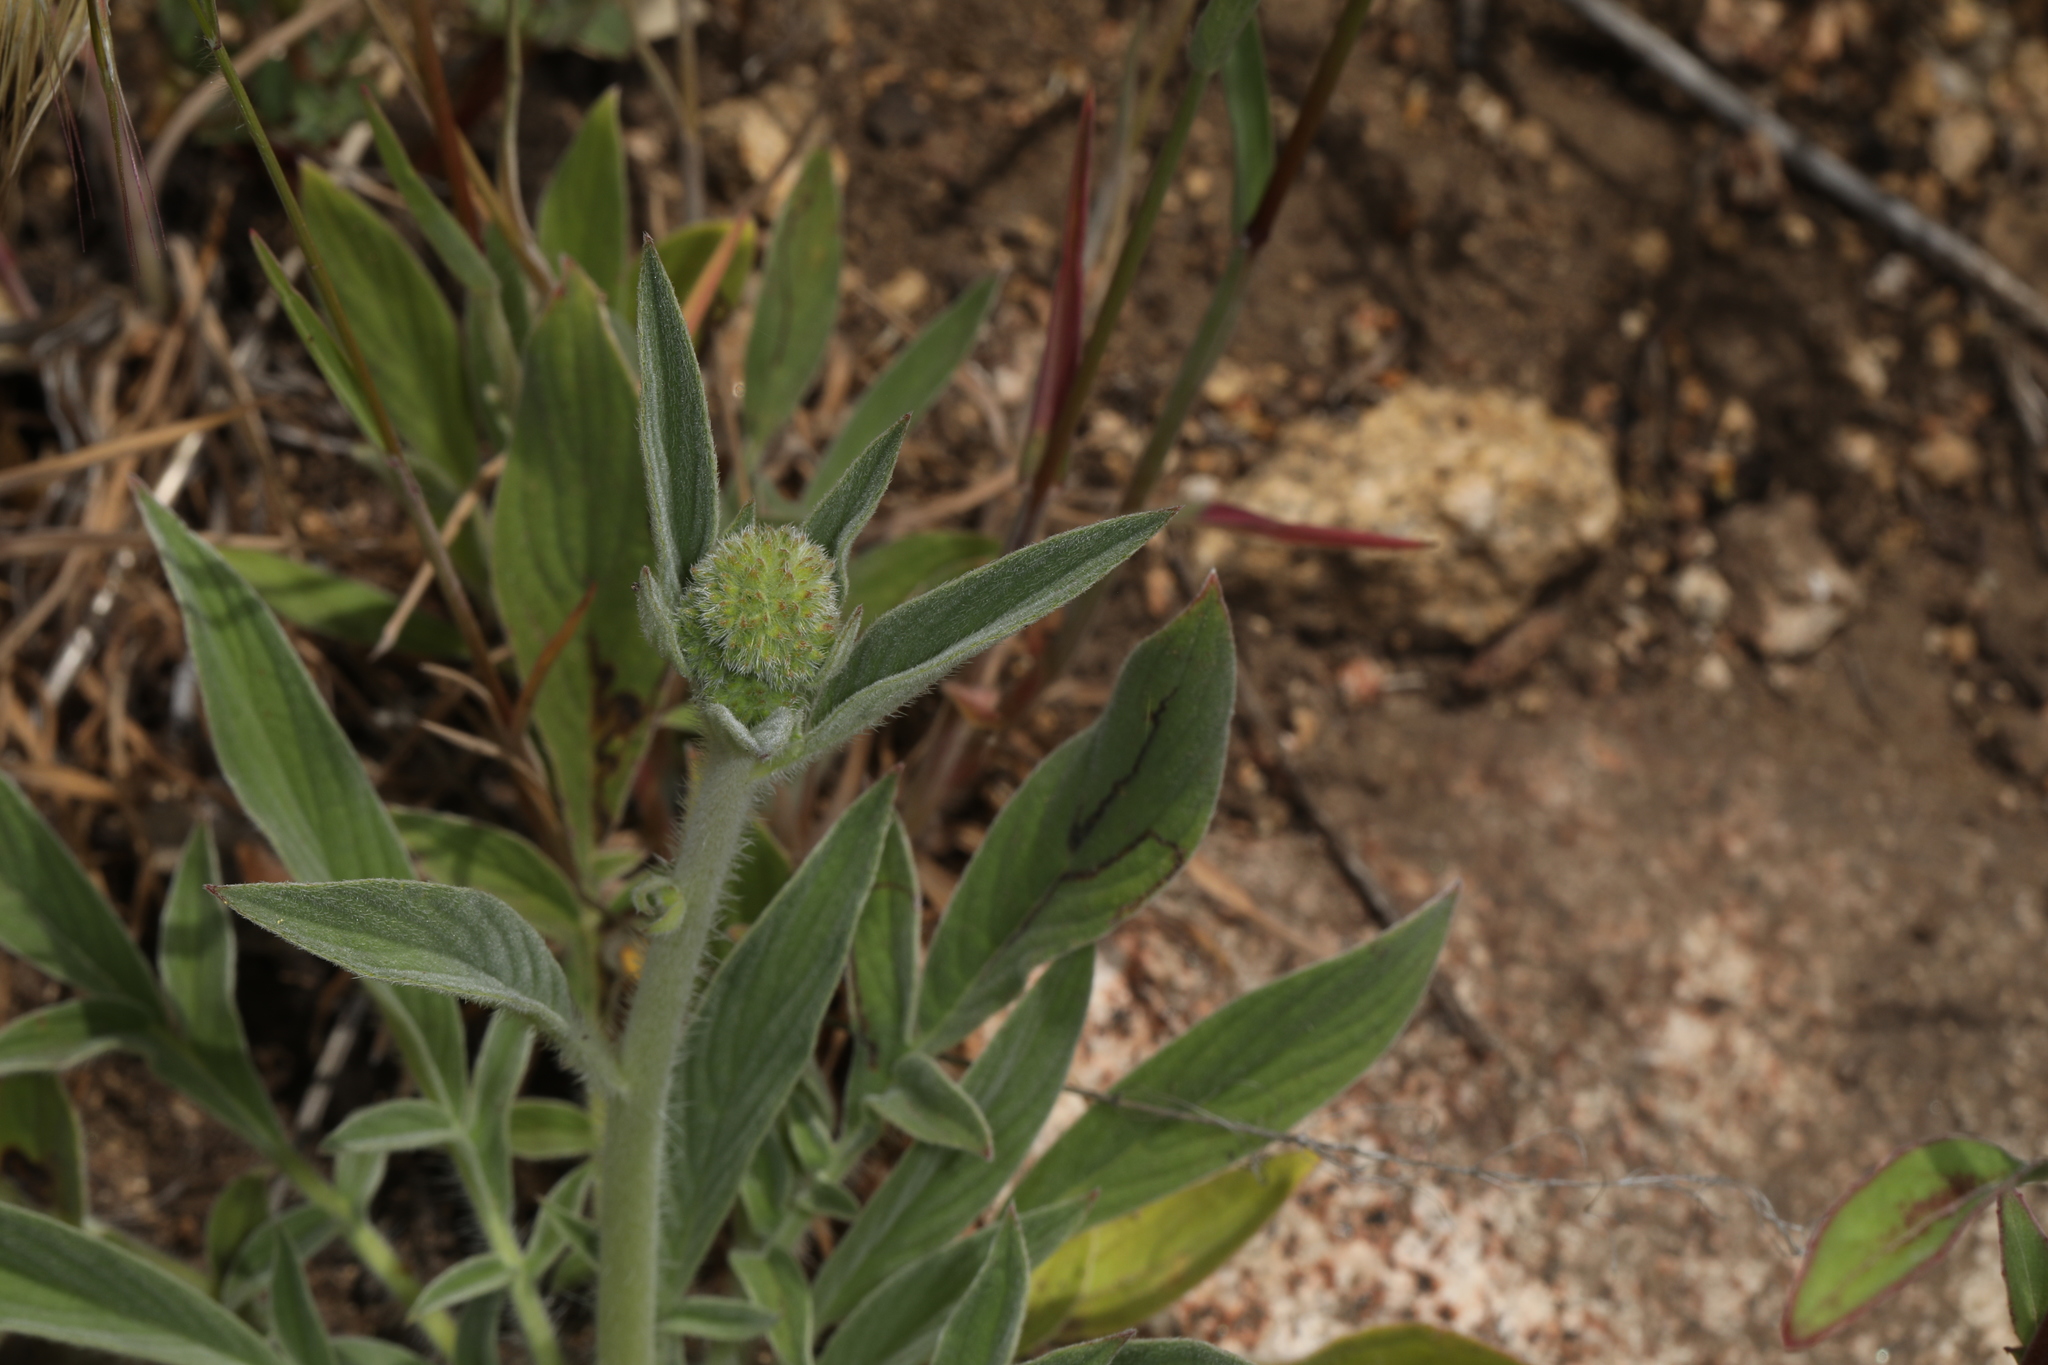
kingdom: Plantae
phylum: Tracheophyta
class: Magnoliopsida
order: Boraginales
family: Hydrophyllaceae
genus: Phacelia
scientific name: Phacelia imbricata
